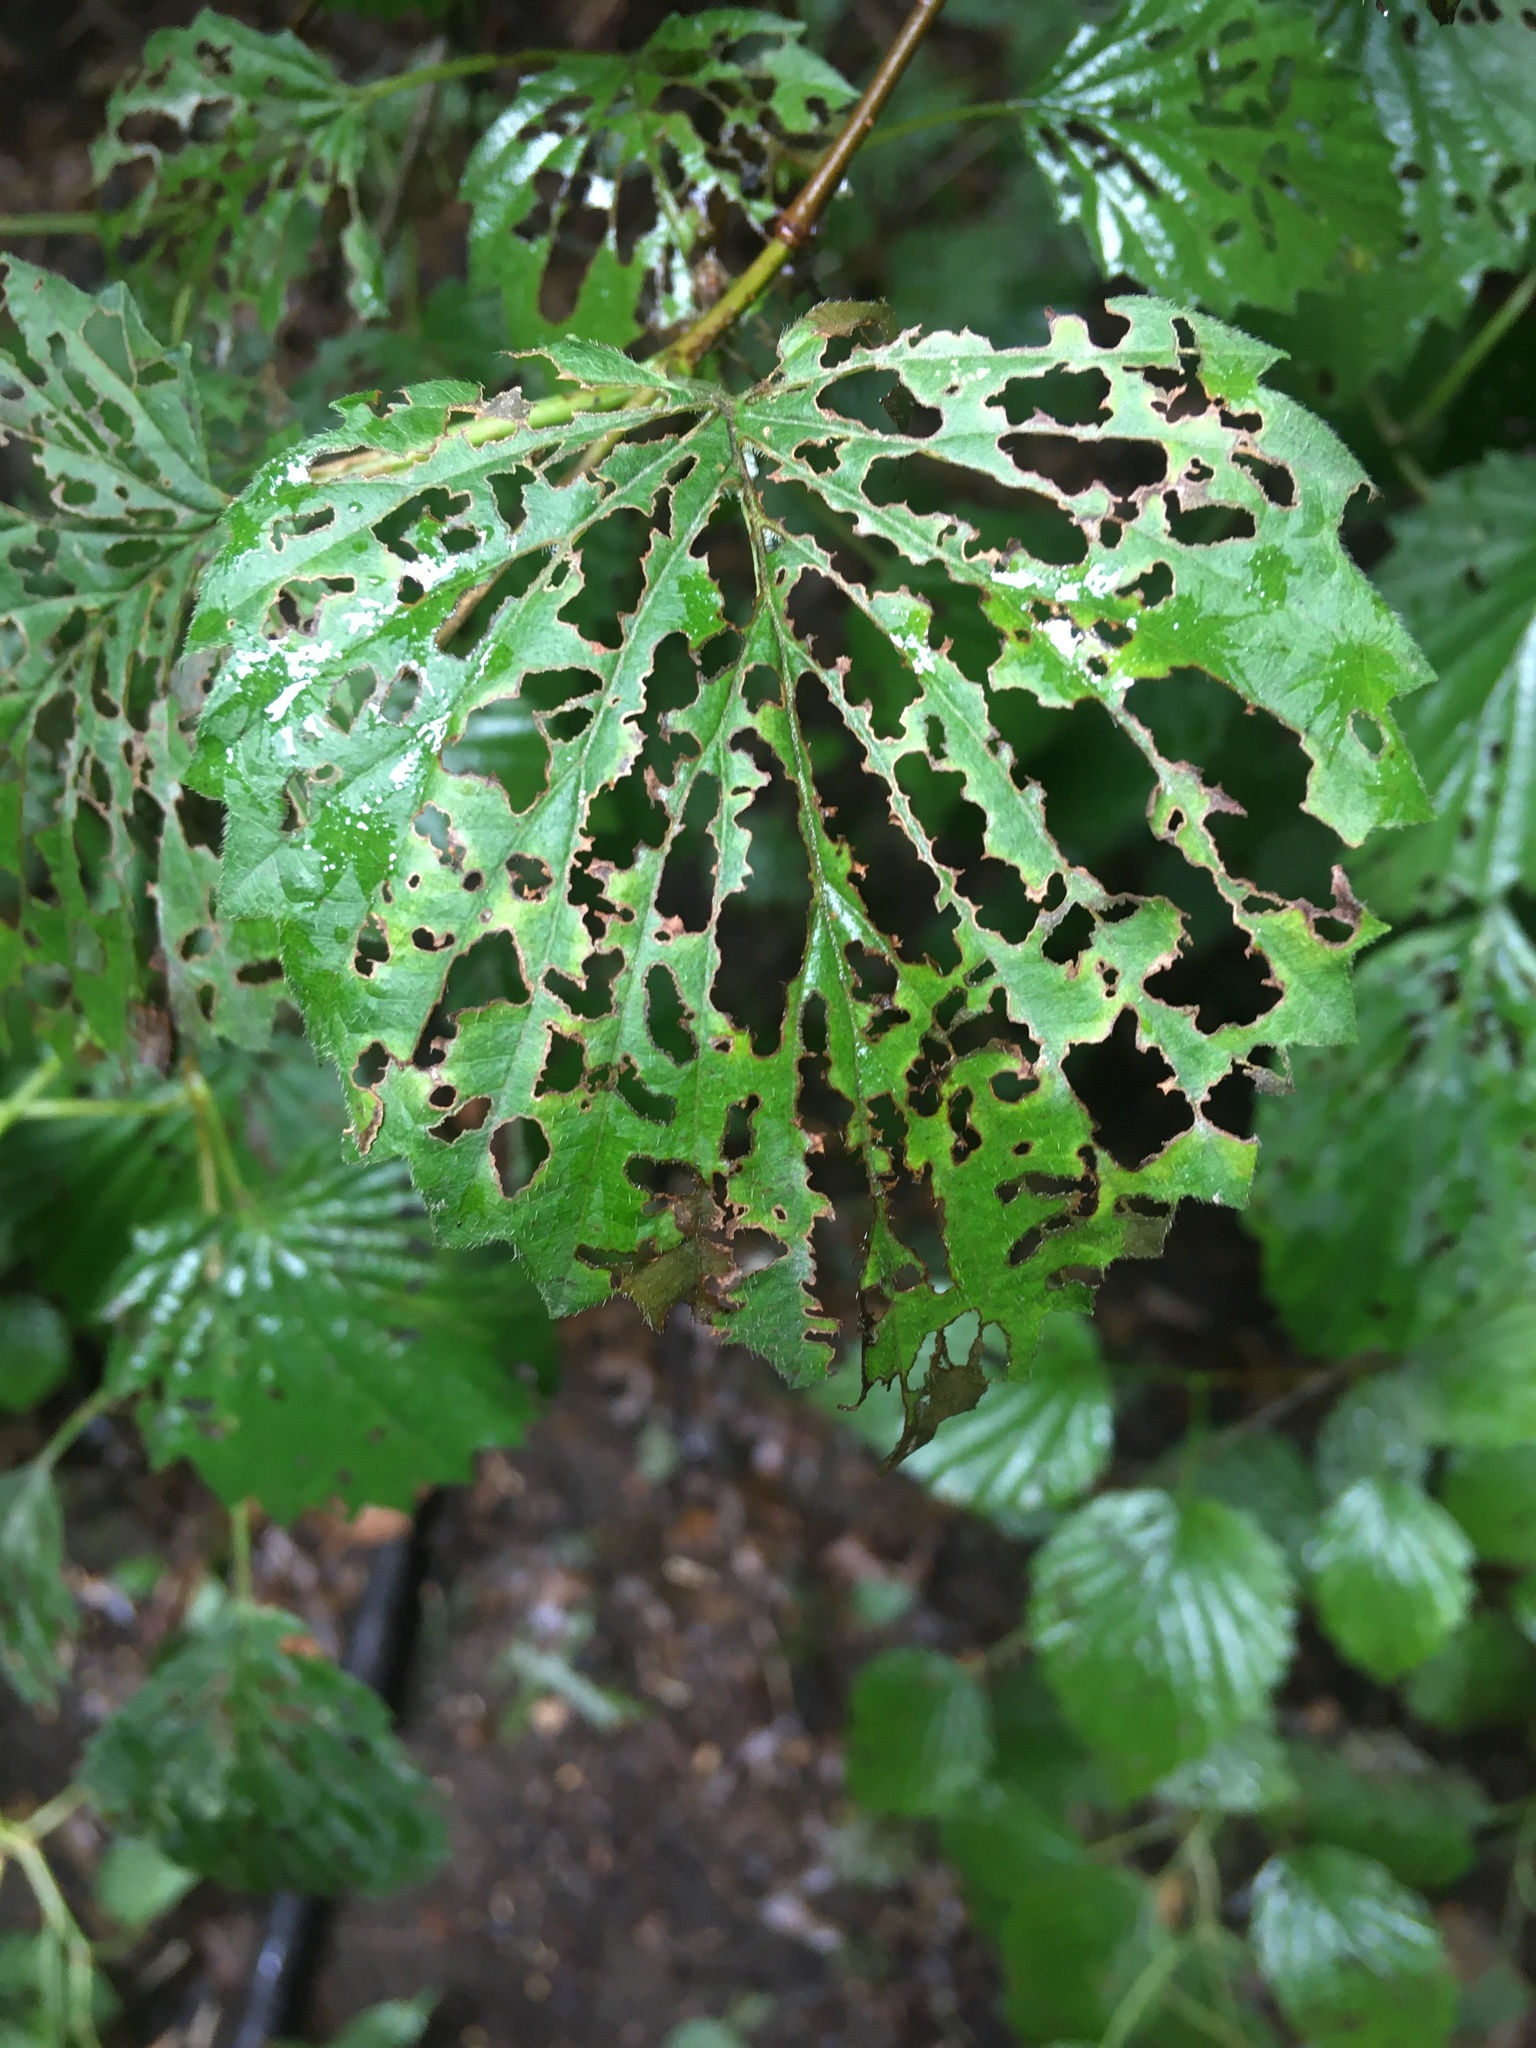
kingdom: Plantae
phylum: Tracheophyta
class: Magnoliopsida
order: Dipsacales
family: Viburnaceae
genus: Viburnum
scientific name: Viburnum dentatum
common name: Arrow-wood
